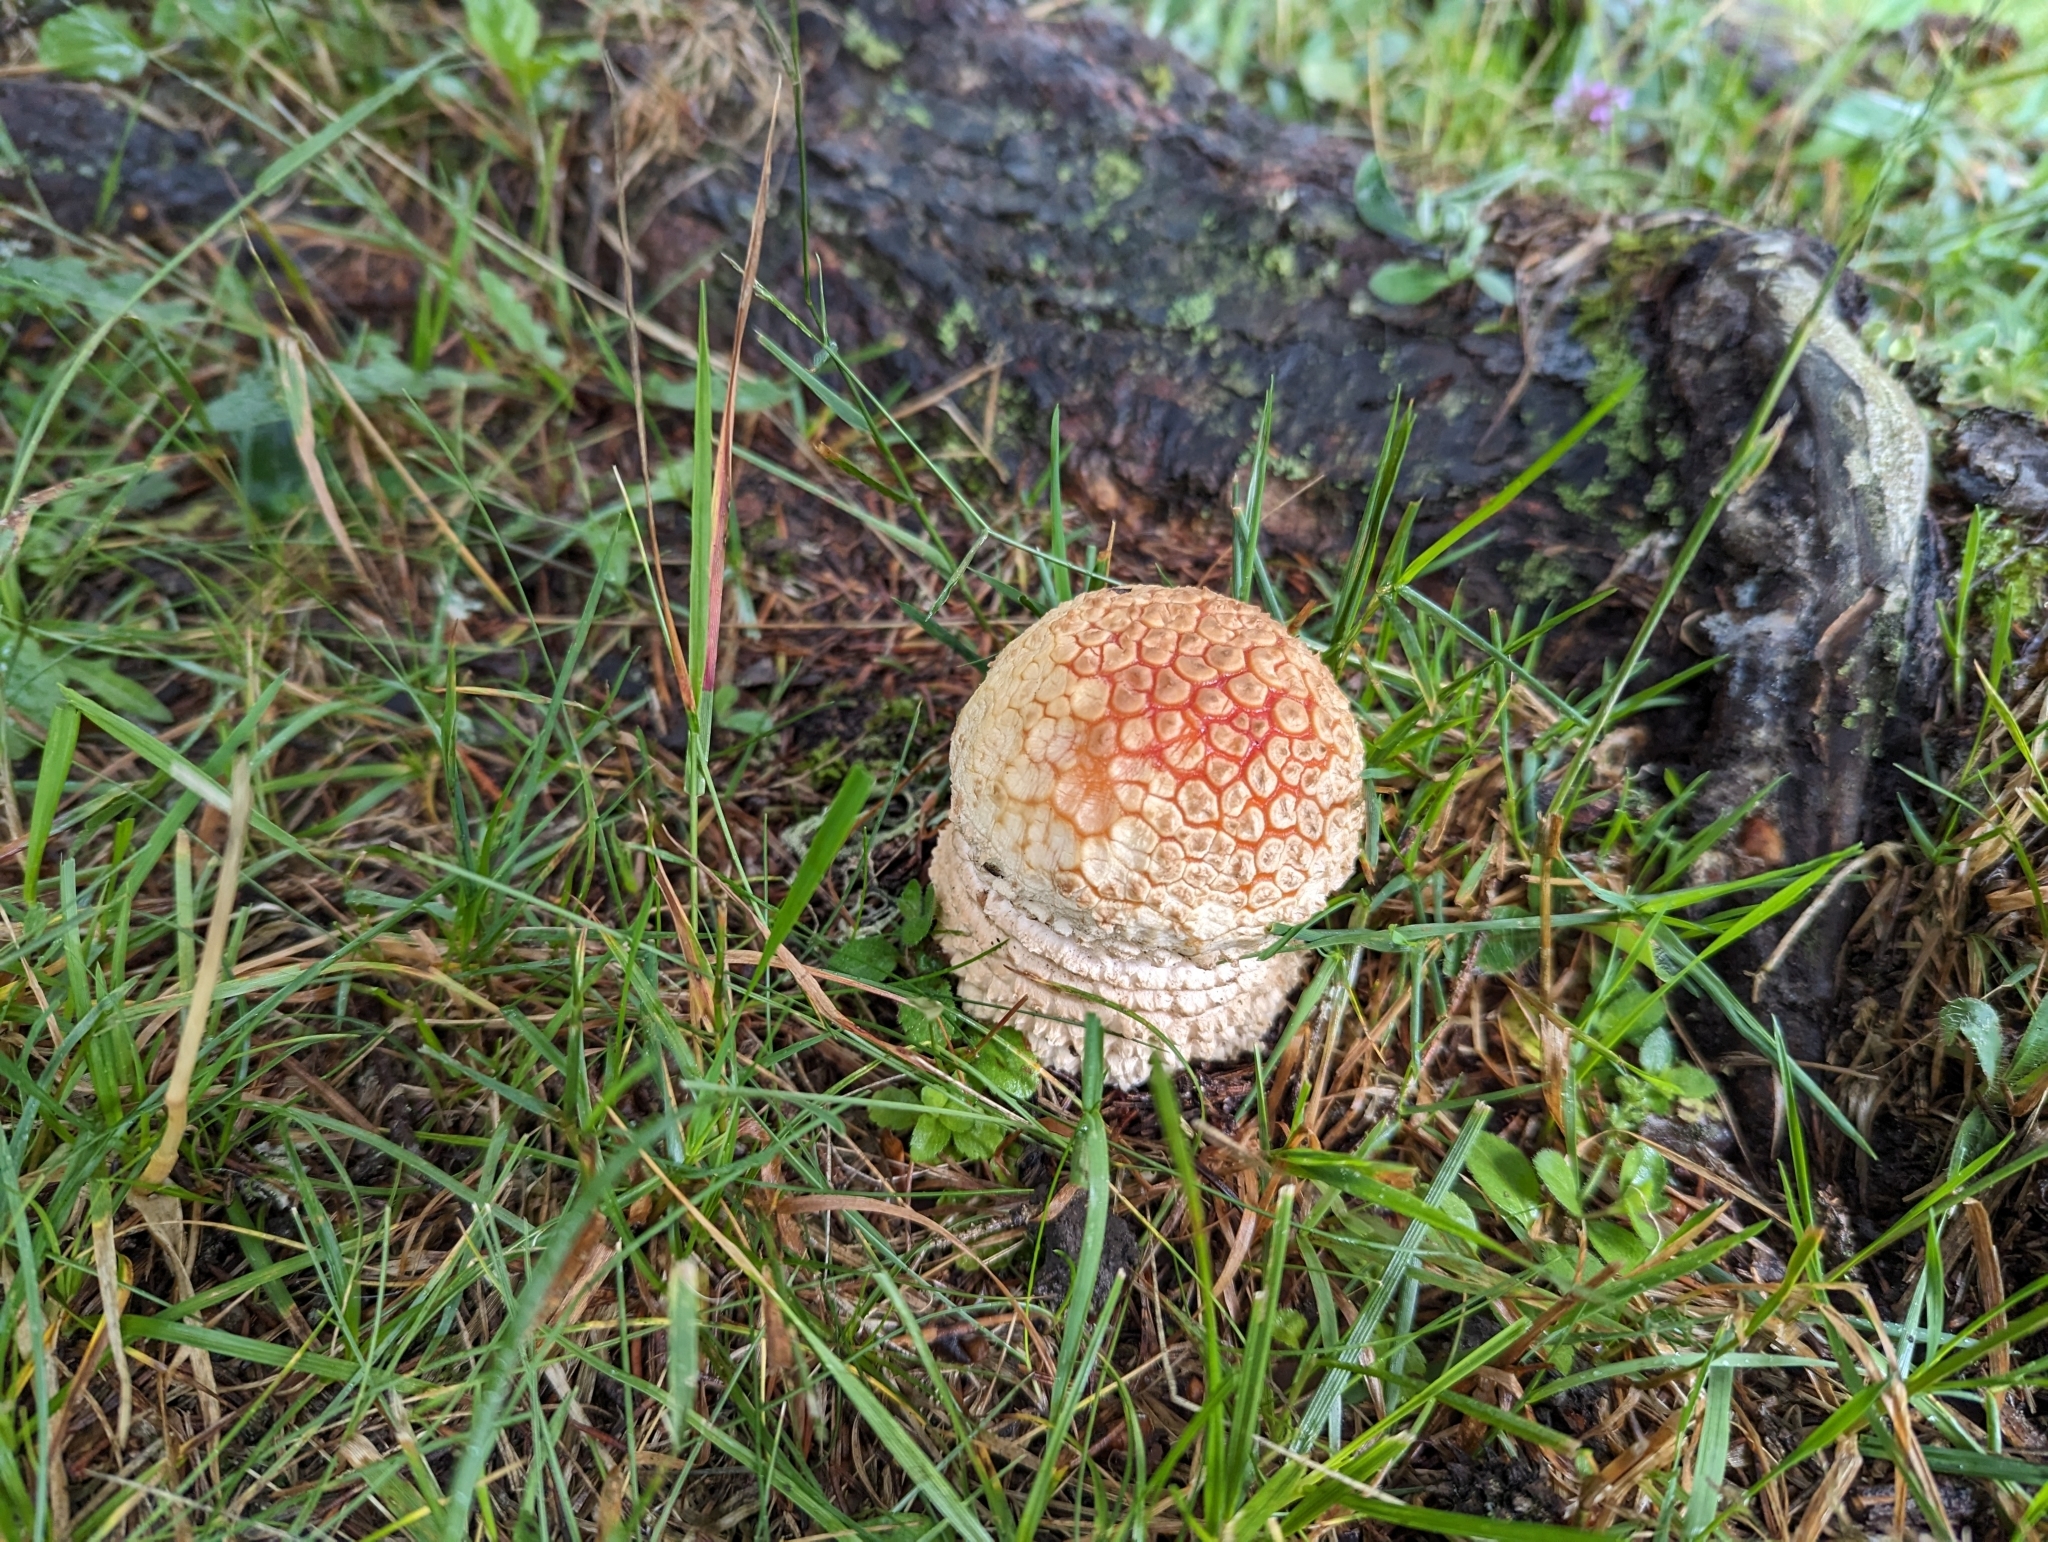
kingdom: Fungi
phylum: Basidiomycota
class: Agaricomycetes
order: Agaricales
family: Amanitaceae
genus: Amanita
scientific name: Amanita muscaria
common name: Fly agaric
